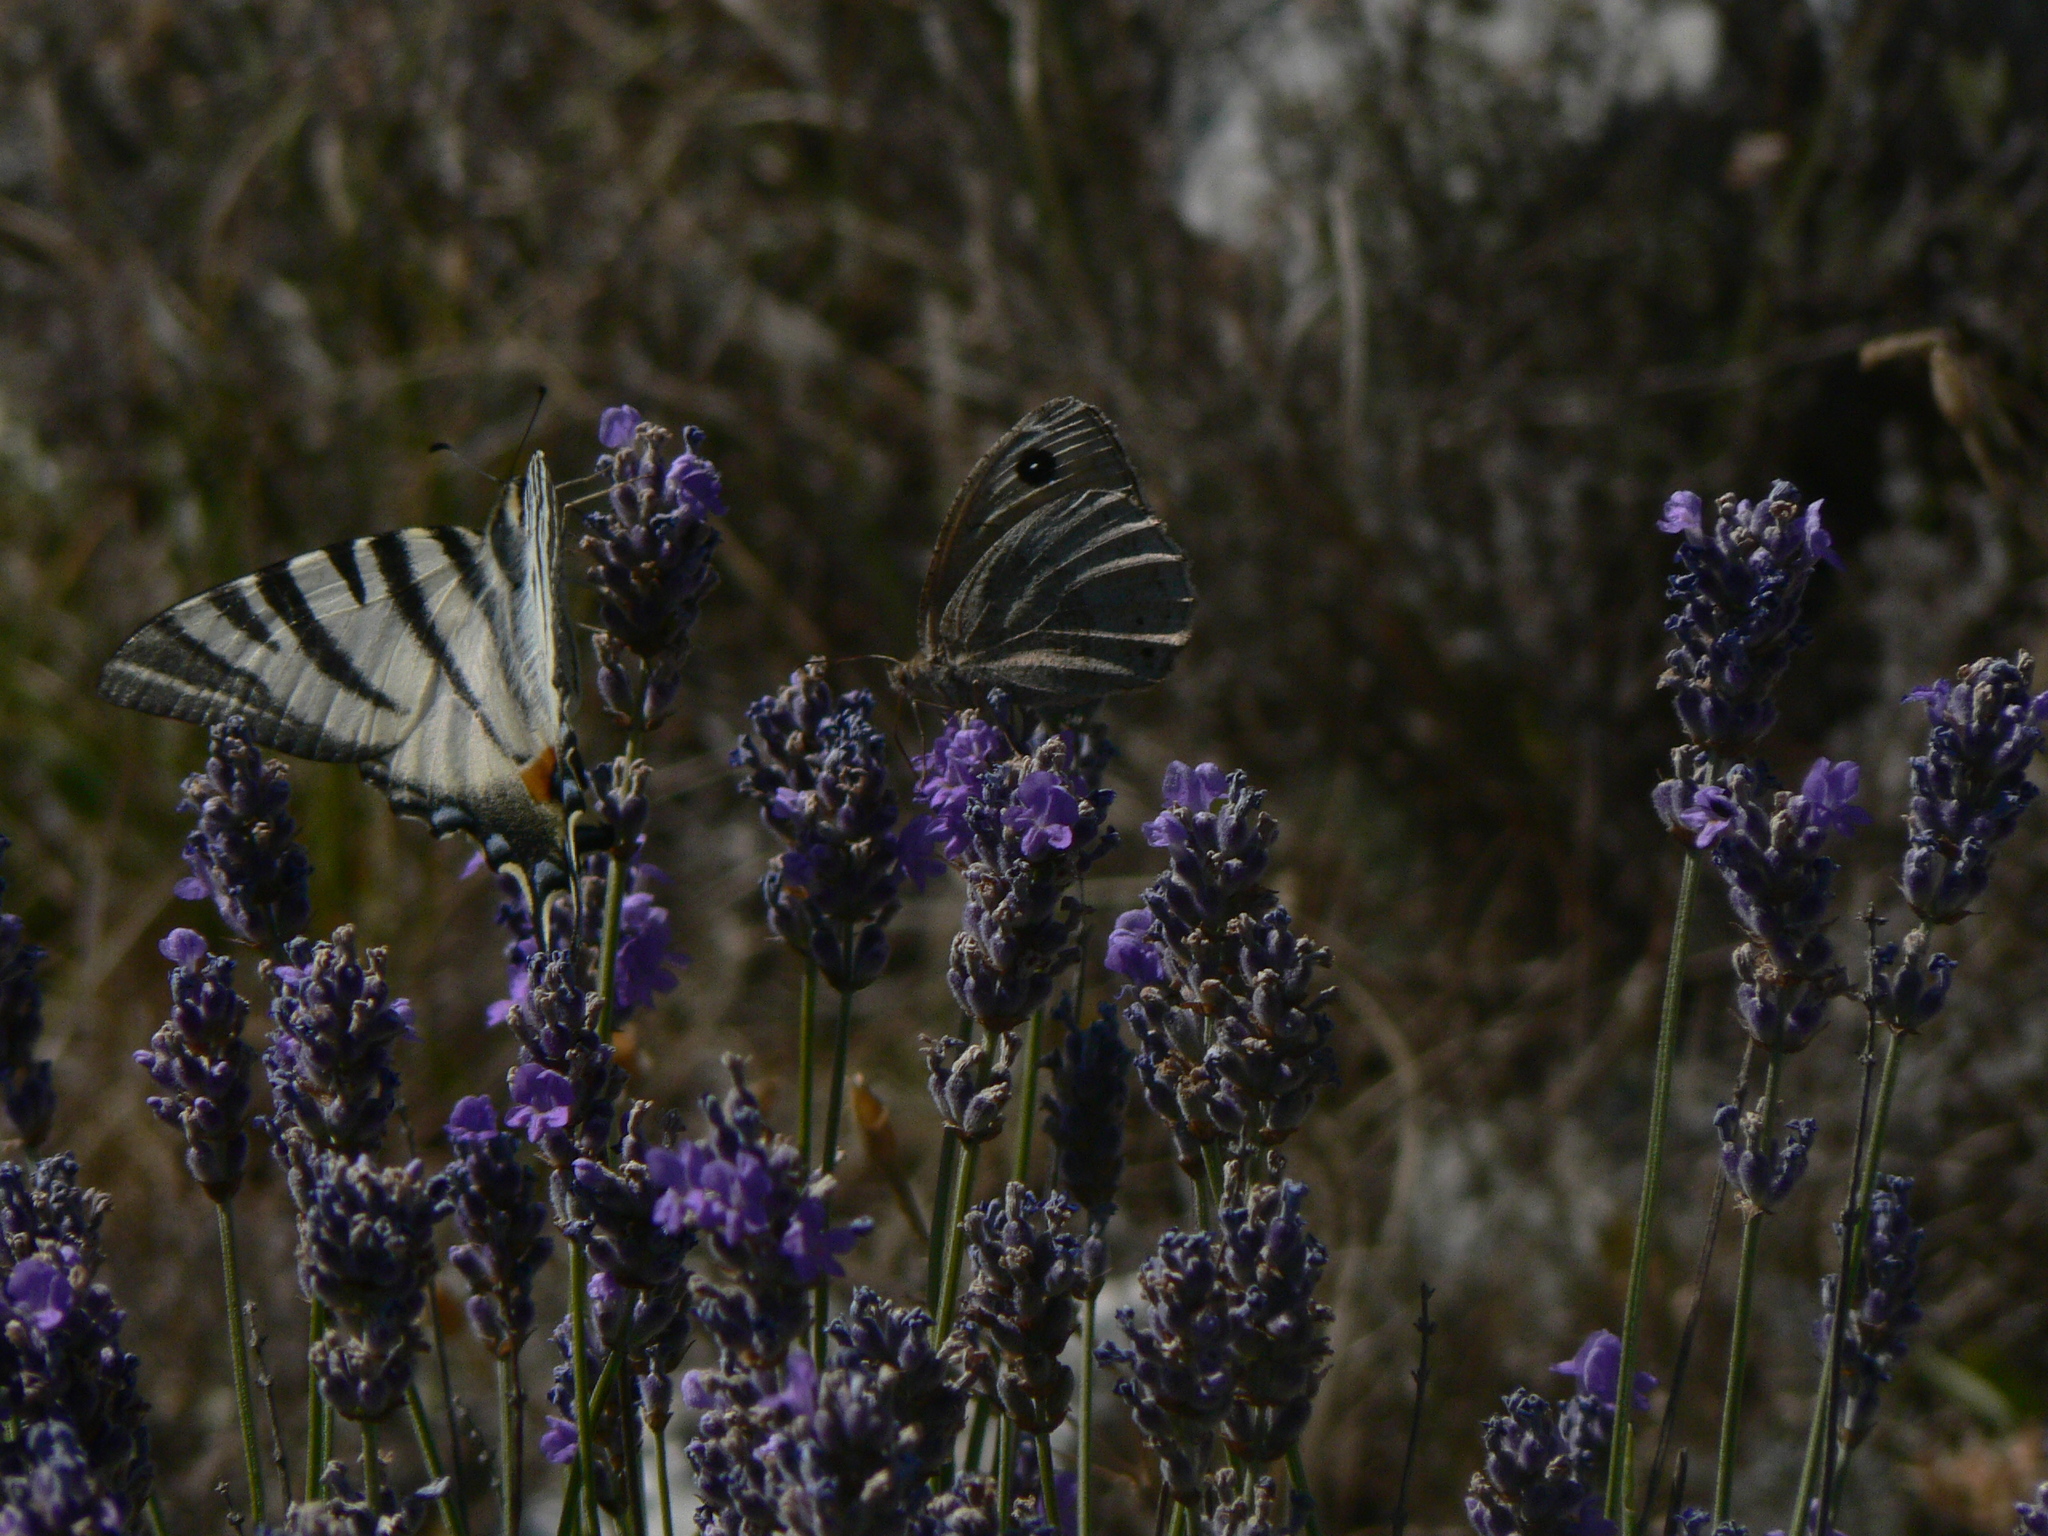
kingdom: Animalia
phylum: Arthropoda
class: Insecta
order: Lepidoptera
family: Papilionidae
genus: Iphiclides
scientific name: Iphiclides podalirius
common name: Scarce swallowtail
